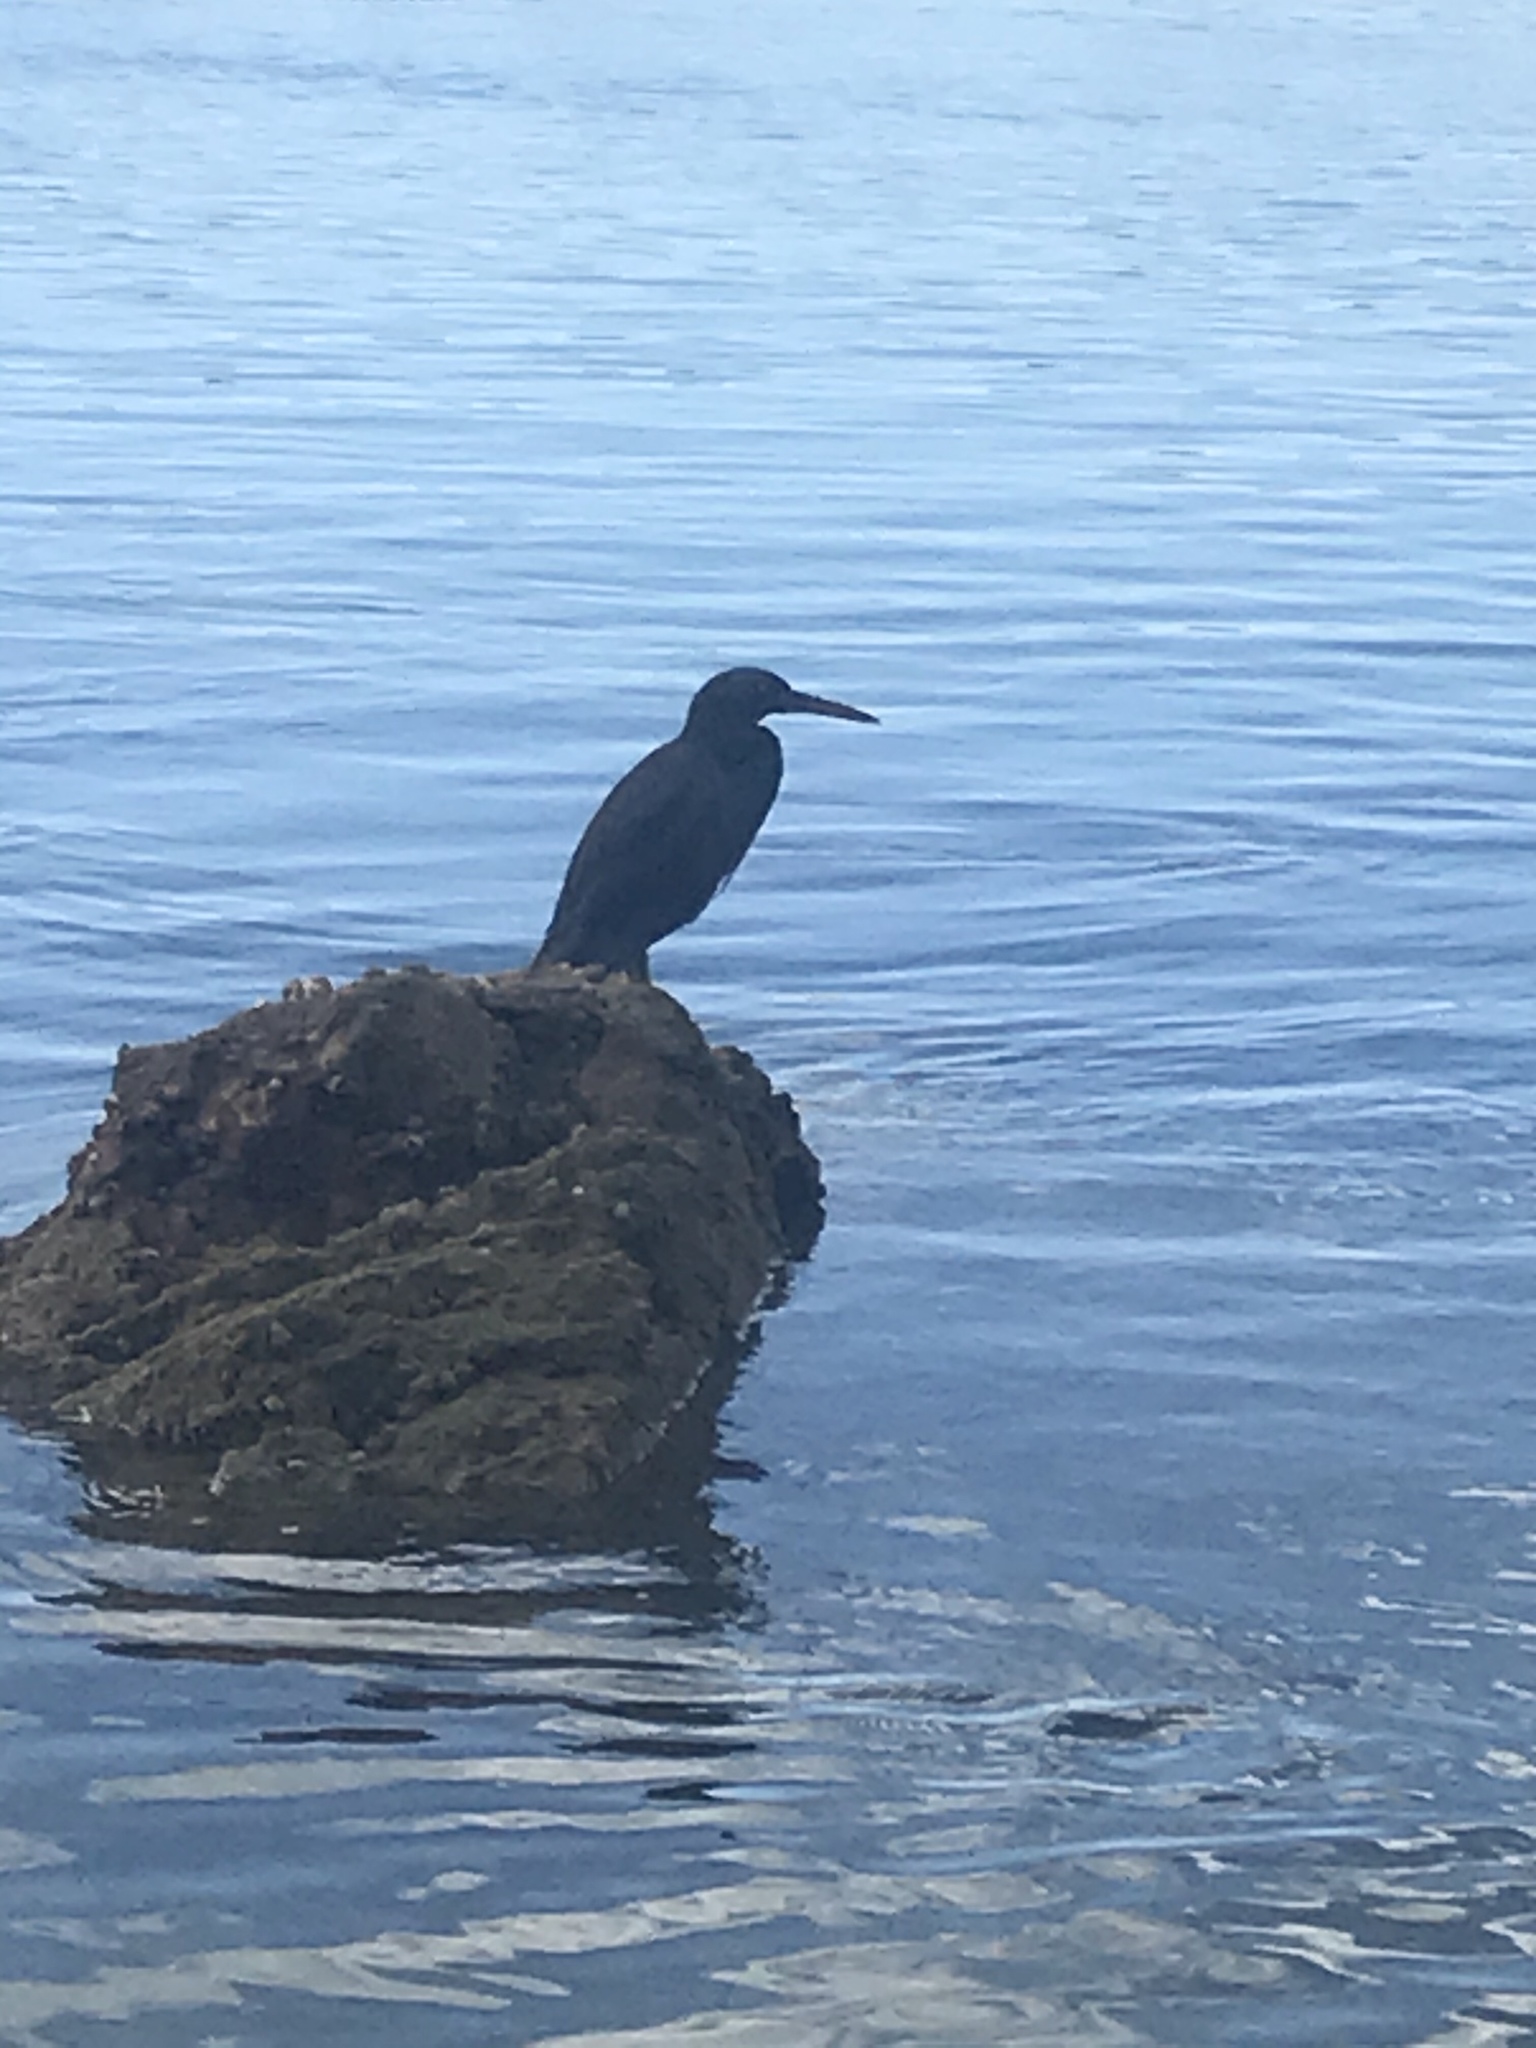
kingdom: Animalia
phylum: Chordata
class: Aves
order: Pelecaniformes
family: Ardeidae
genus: Egretta
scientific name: Egretta sacra
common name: Pacific reef heron
